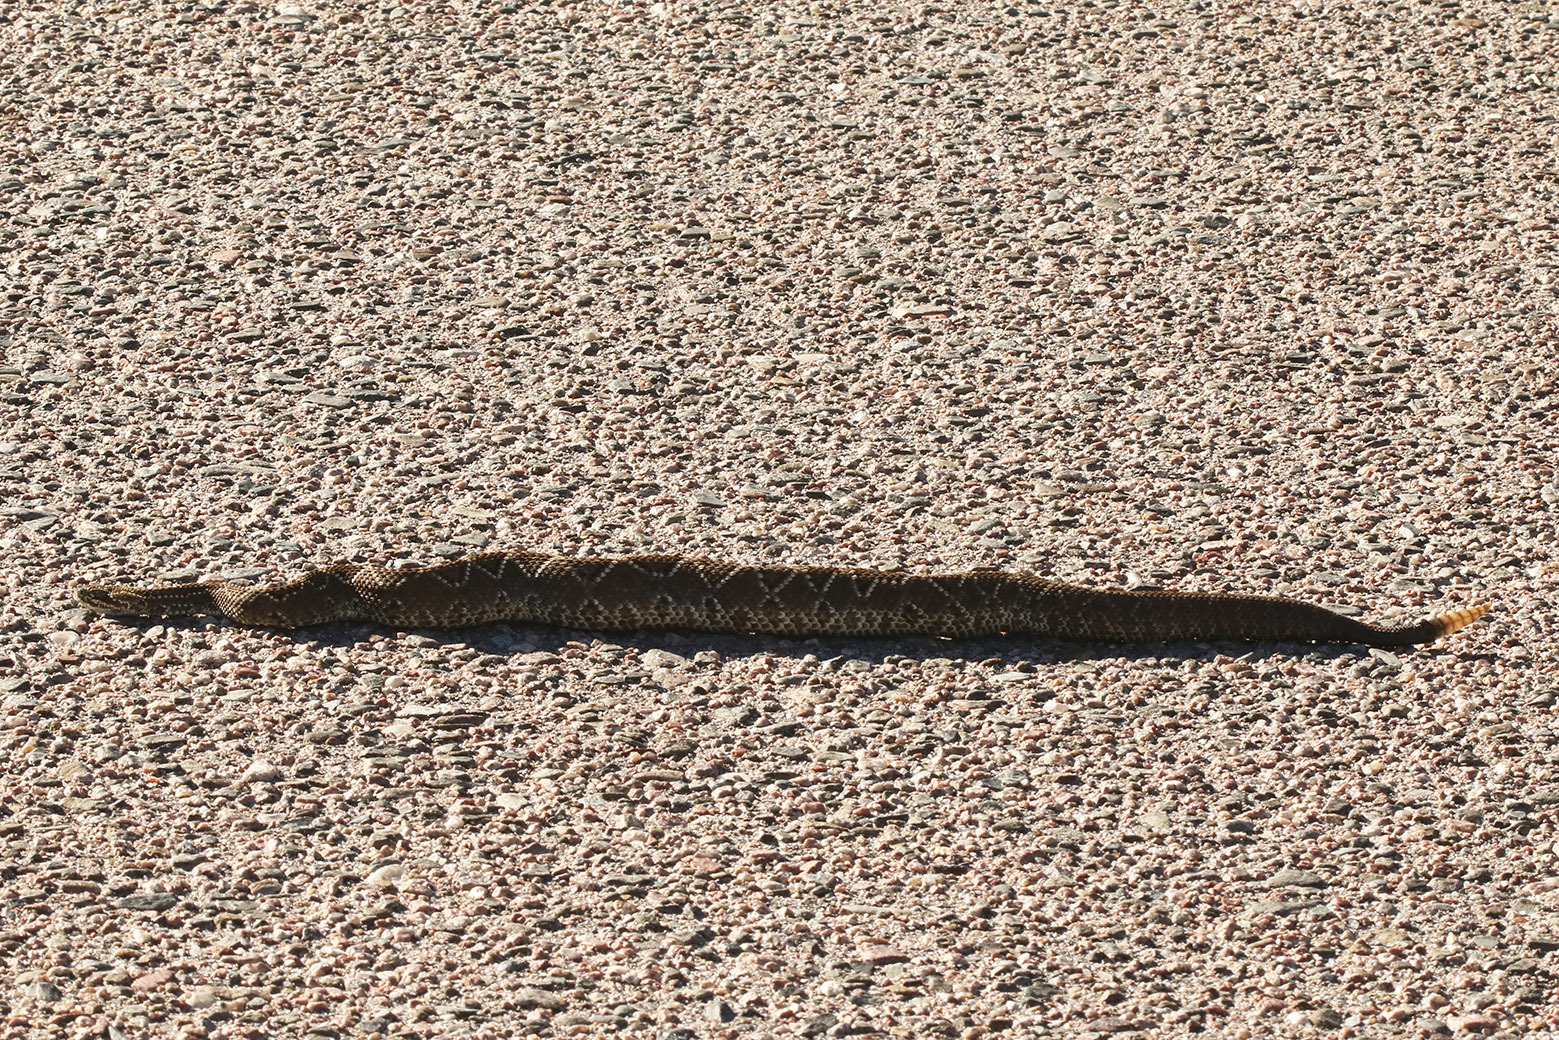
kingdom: Animalia
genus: Crotalus
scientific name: Crotalus durissus
